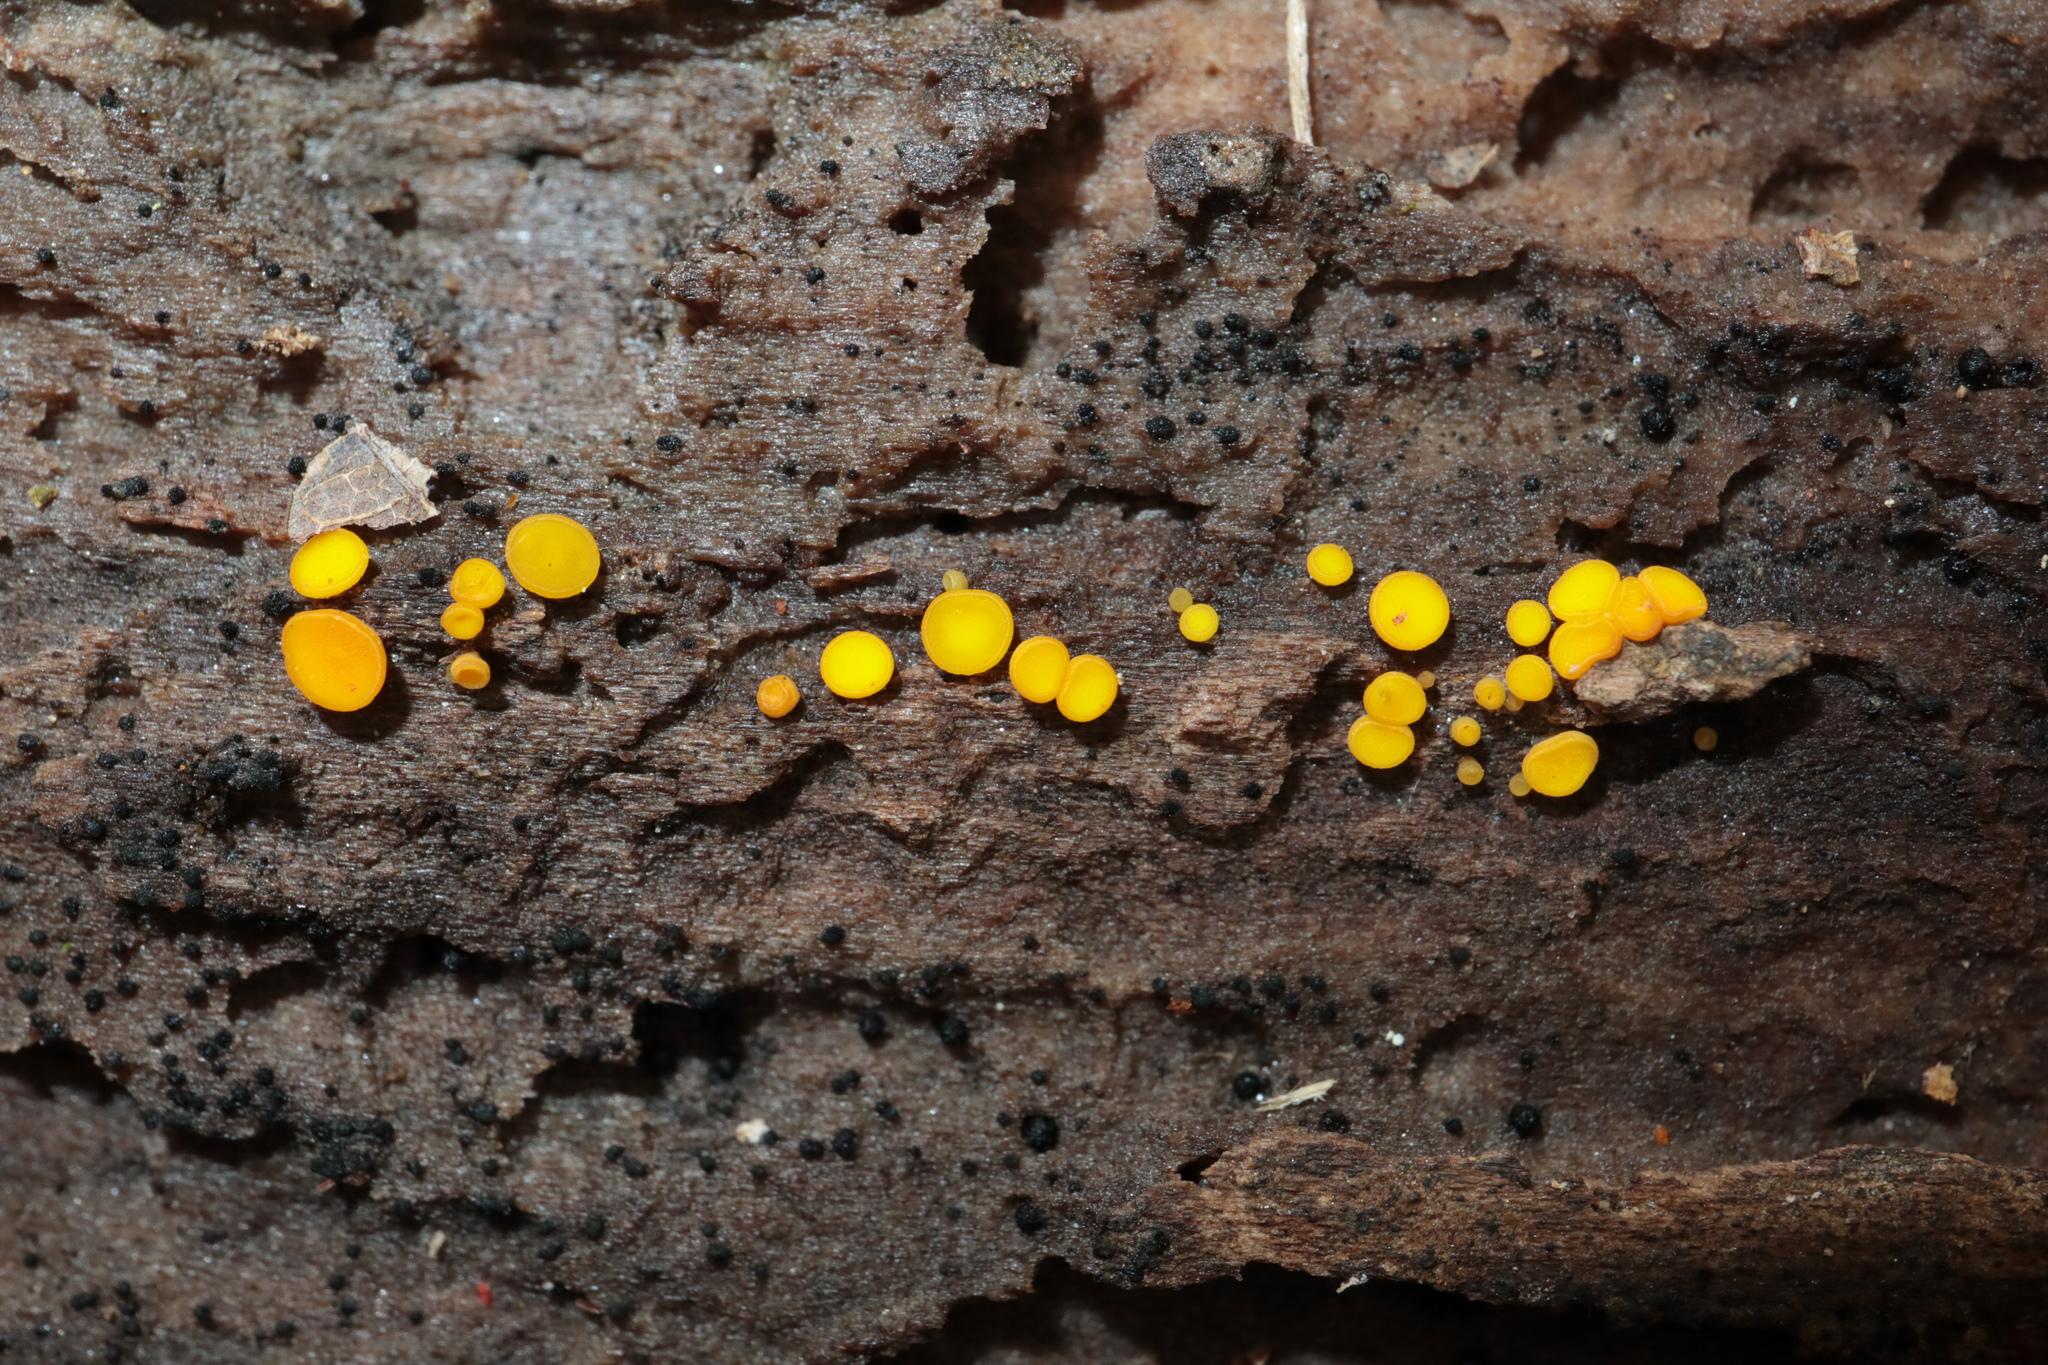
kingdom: Fungi
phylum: Ascomycota
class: Leotiomycetes
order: Helotiales
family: Pezizellaceae
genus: Calycina
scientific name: Calycina citrina
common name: Yellow fairy cups
